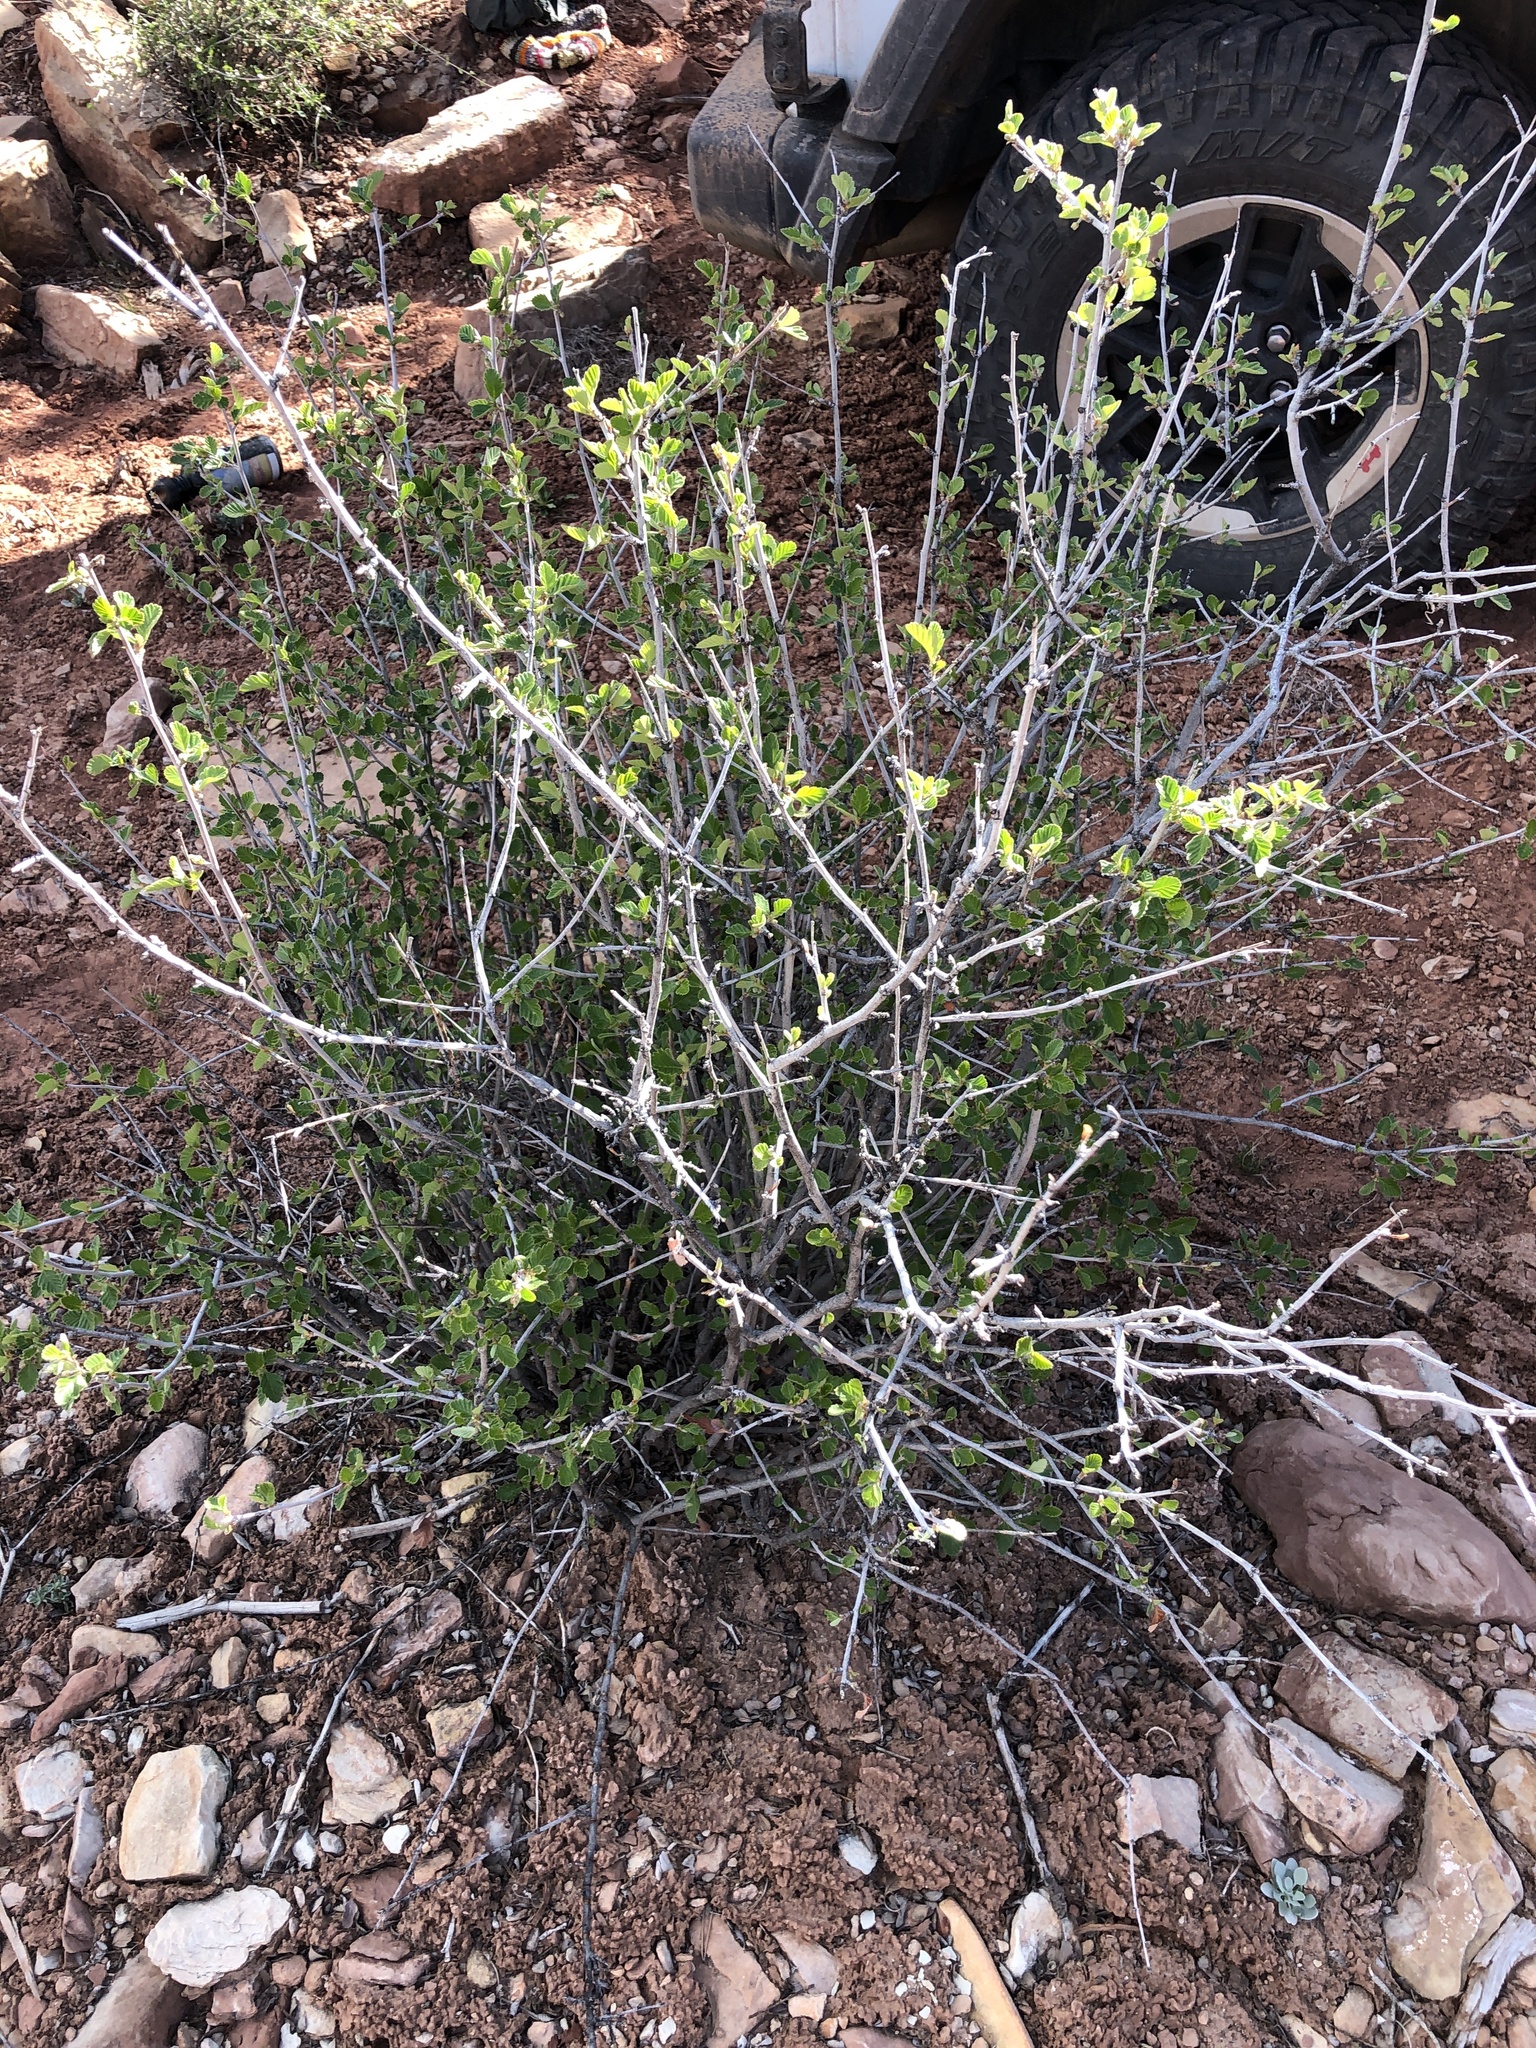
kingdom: Plantae
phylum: Tracheophyta
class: Magnoliopsida
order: Rosales
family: Rosaceae
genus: Cercocarpus
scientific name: Cercocarpus montanus
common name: Alder-leaf cercocarpus
